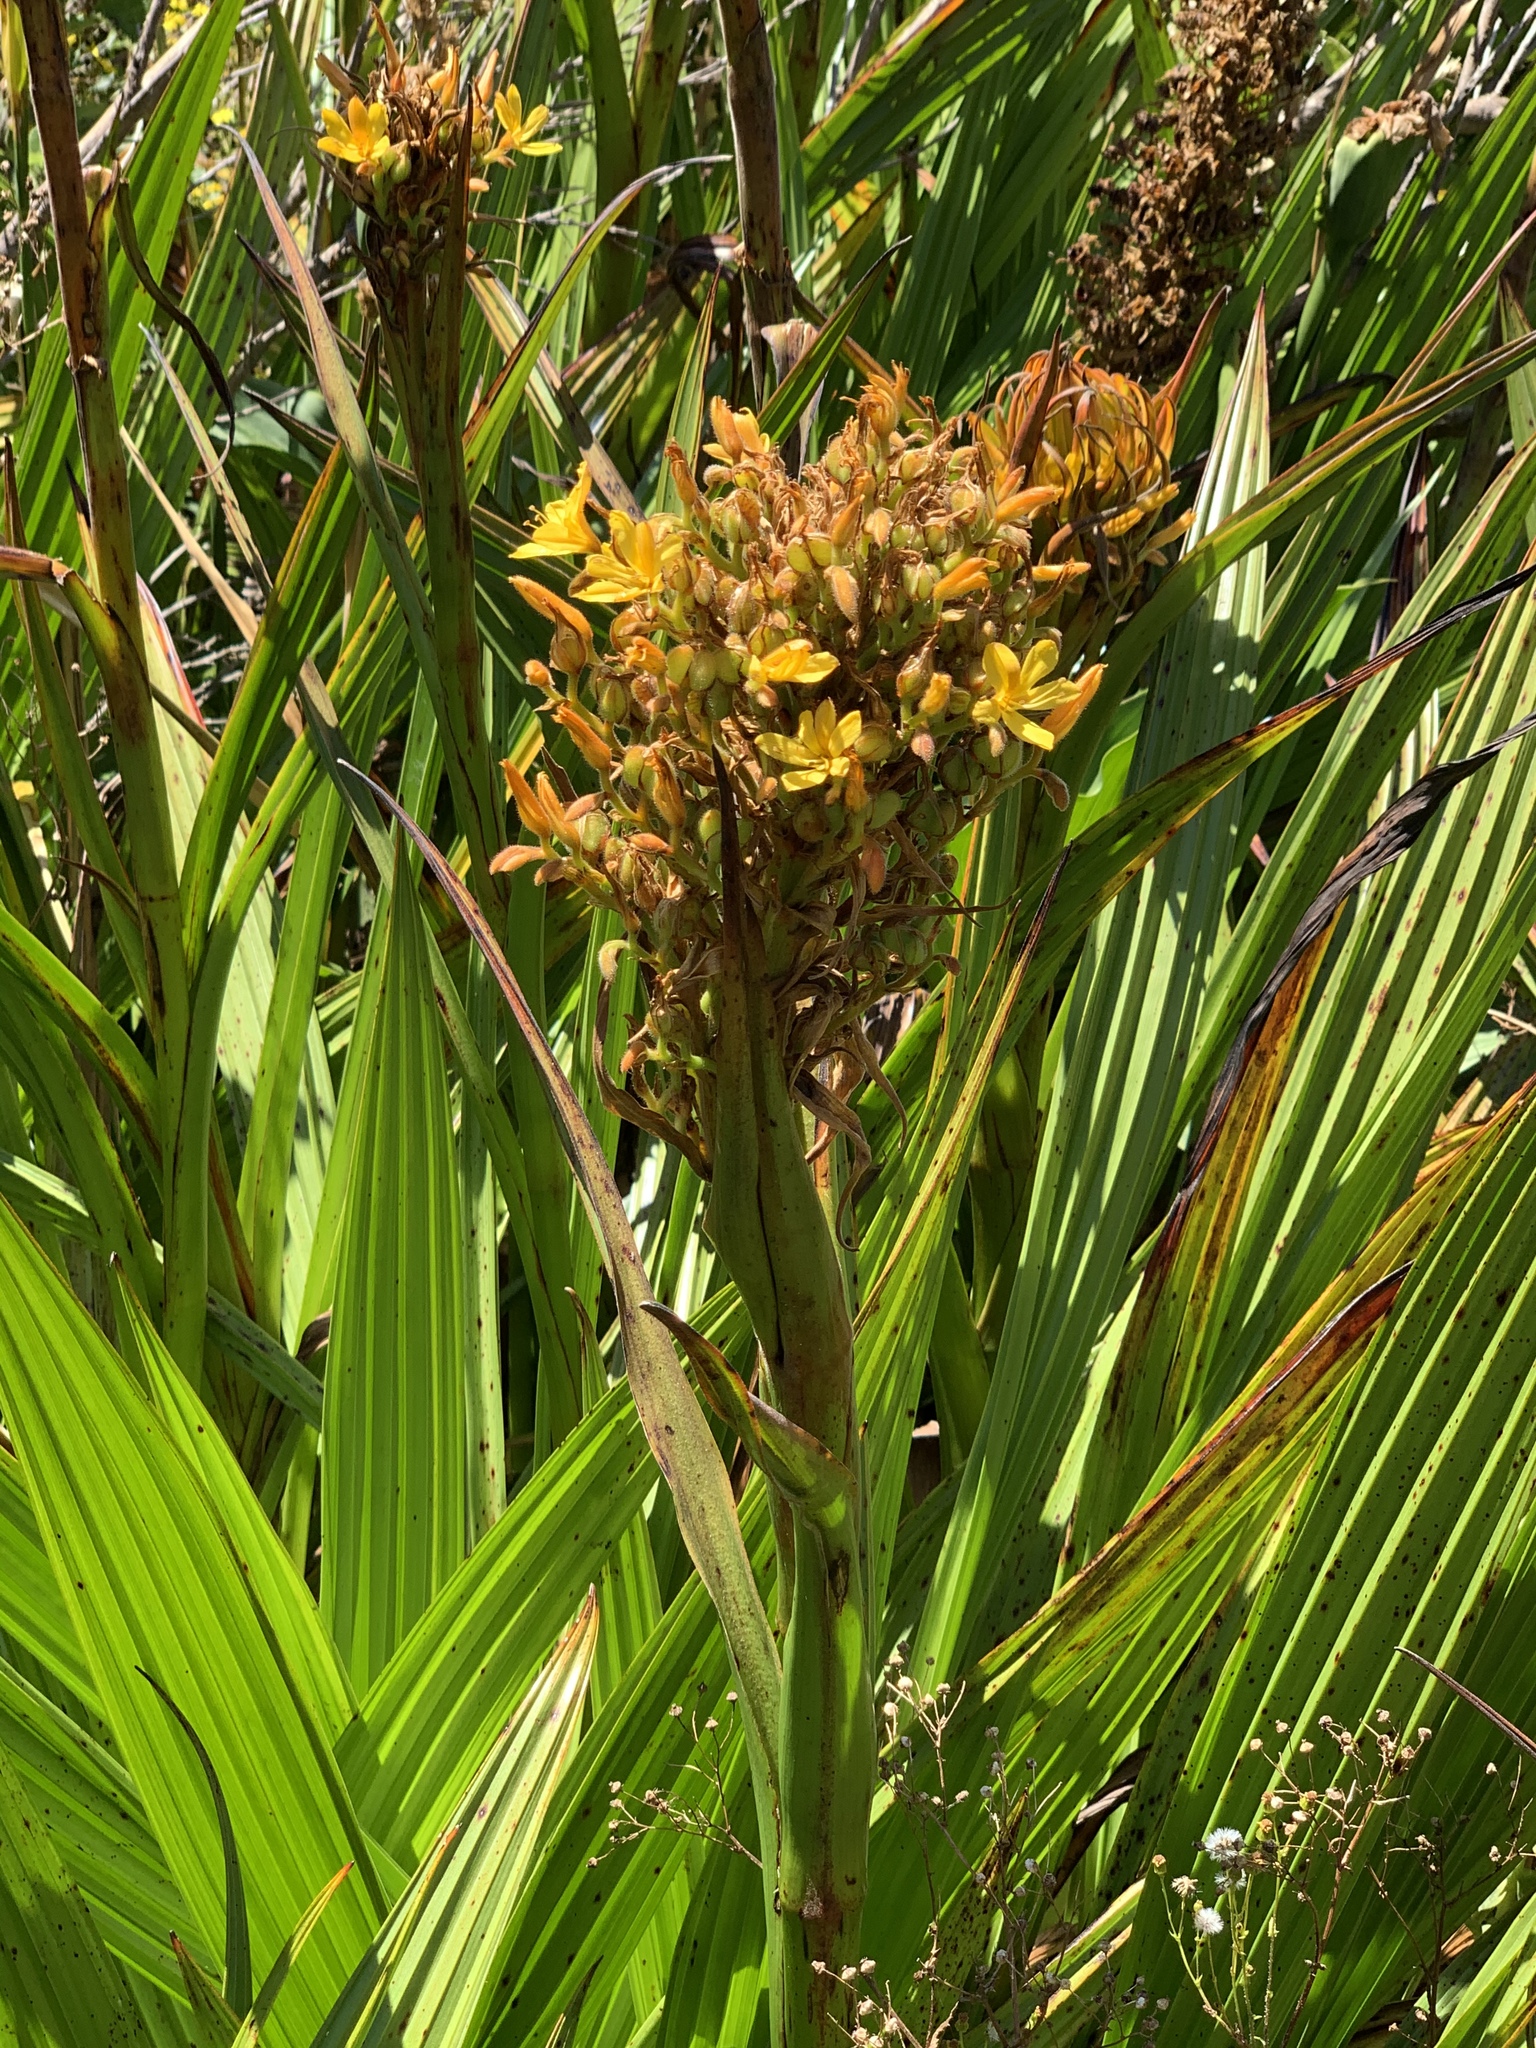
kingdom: Plantae
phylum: Tracheophyta
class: Liliopsida
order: Commelinales
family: Haemodoraceae
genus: Wachendorfia
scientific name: Wachendorfia thyrsiflora
